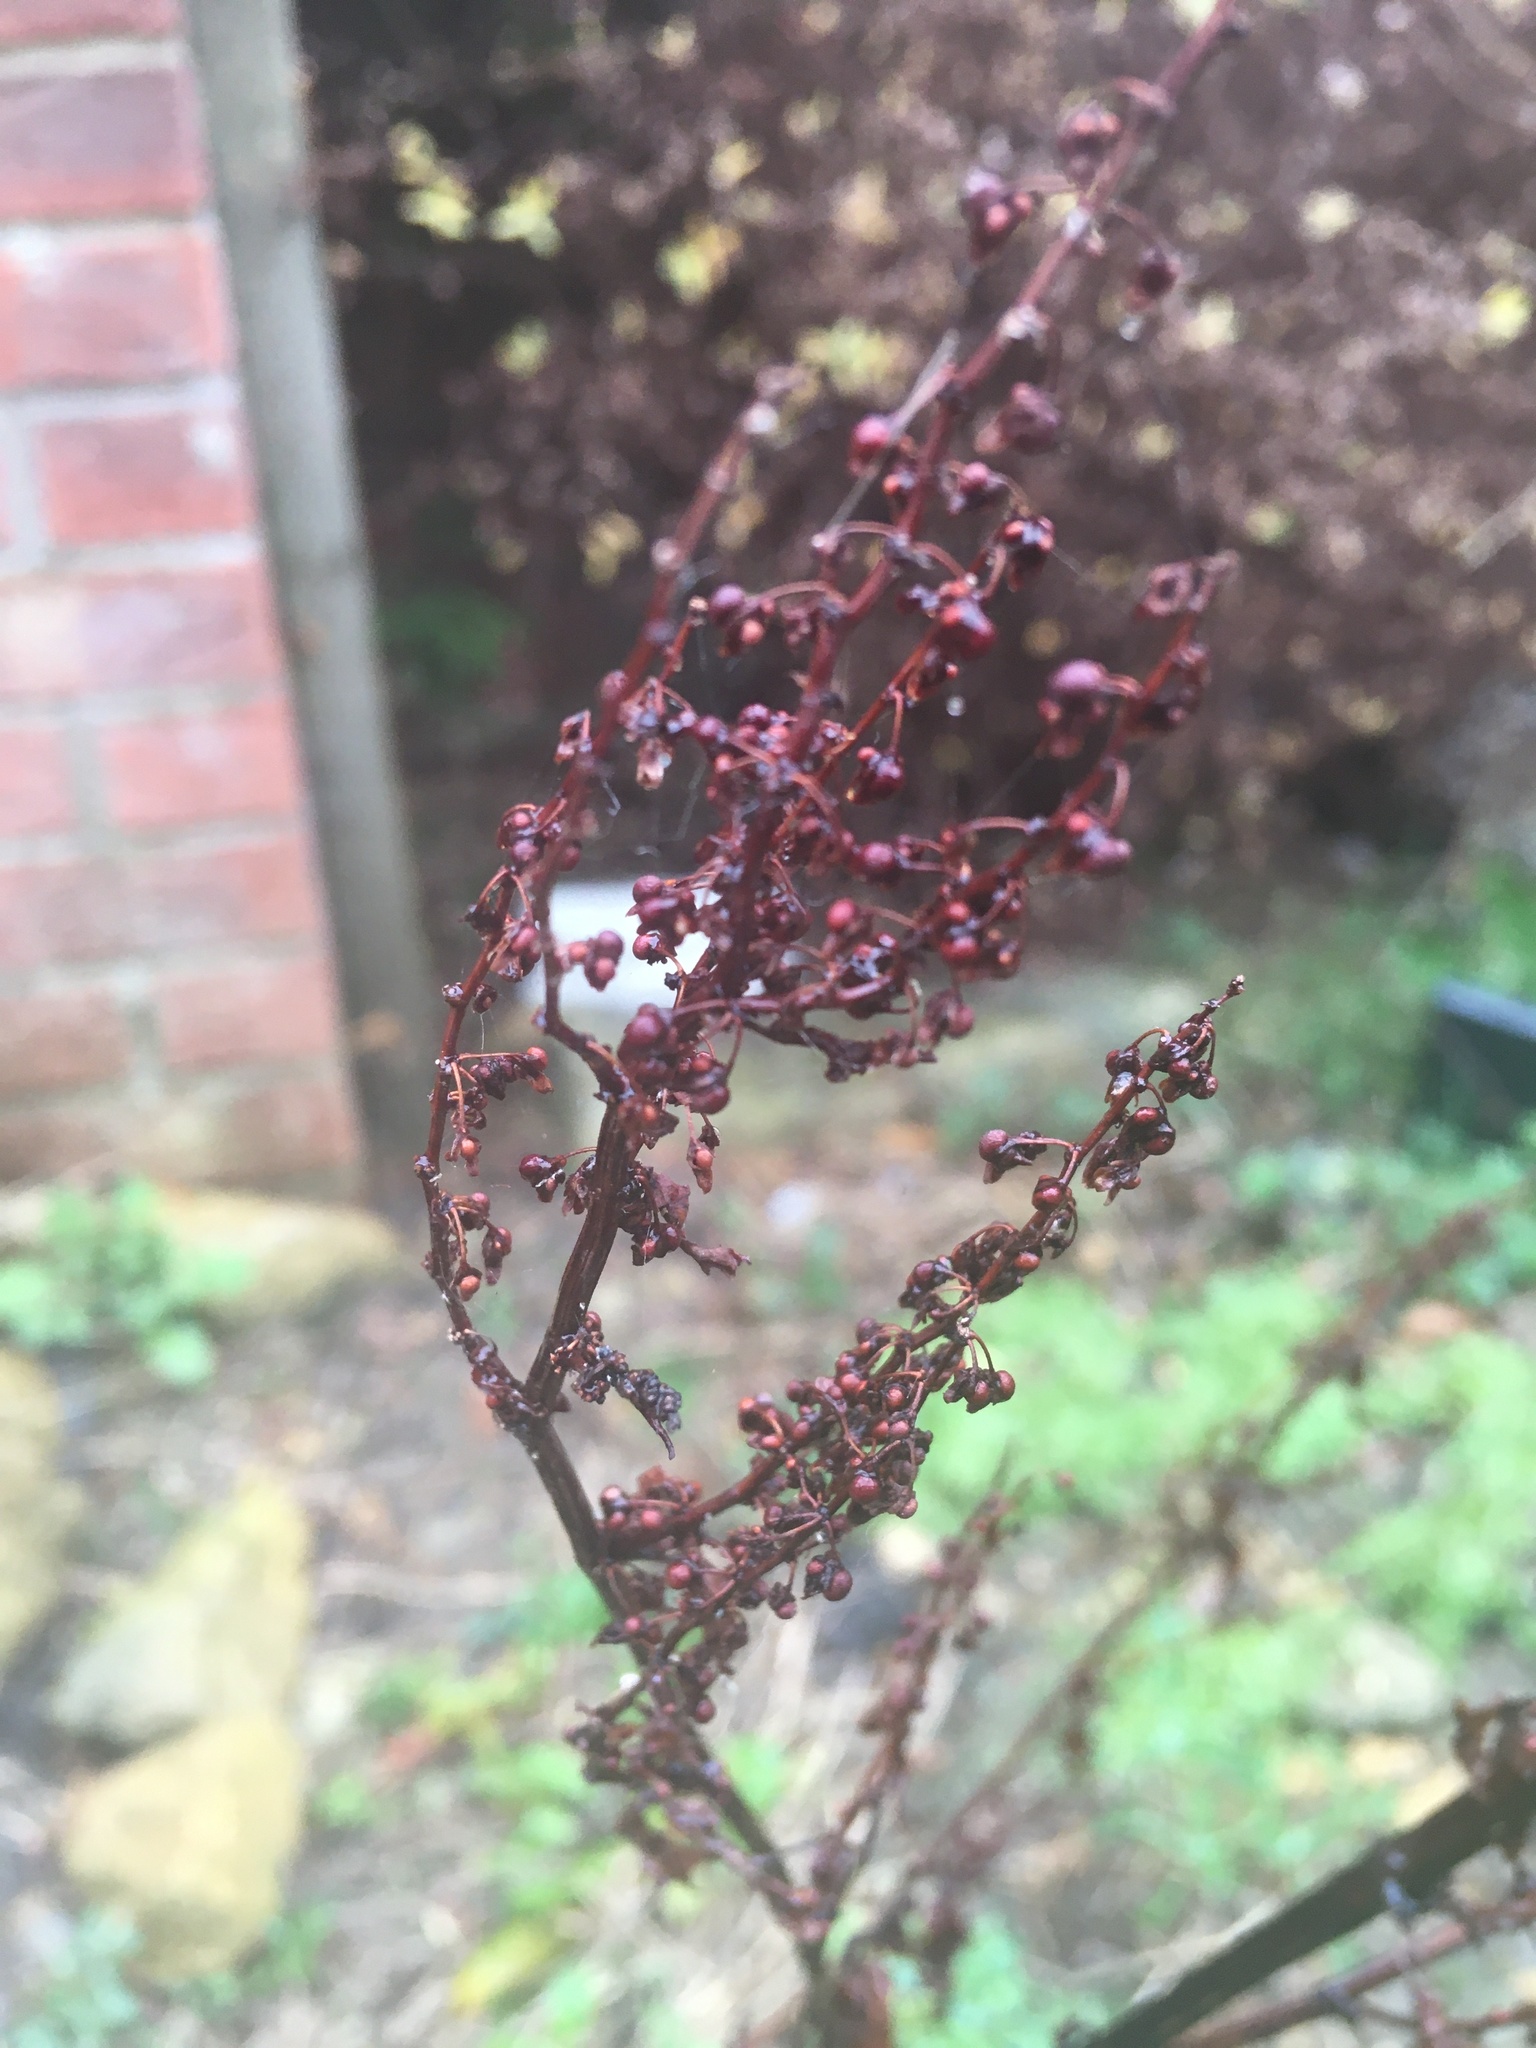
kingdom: Plantae
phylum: Tracheophyta
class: Magnoliopsida
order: Caryophyllales
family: Polygonaceae
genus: Rumex
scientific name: Rumex sanguineus
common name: Wood dock
